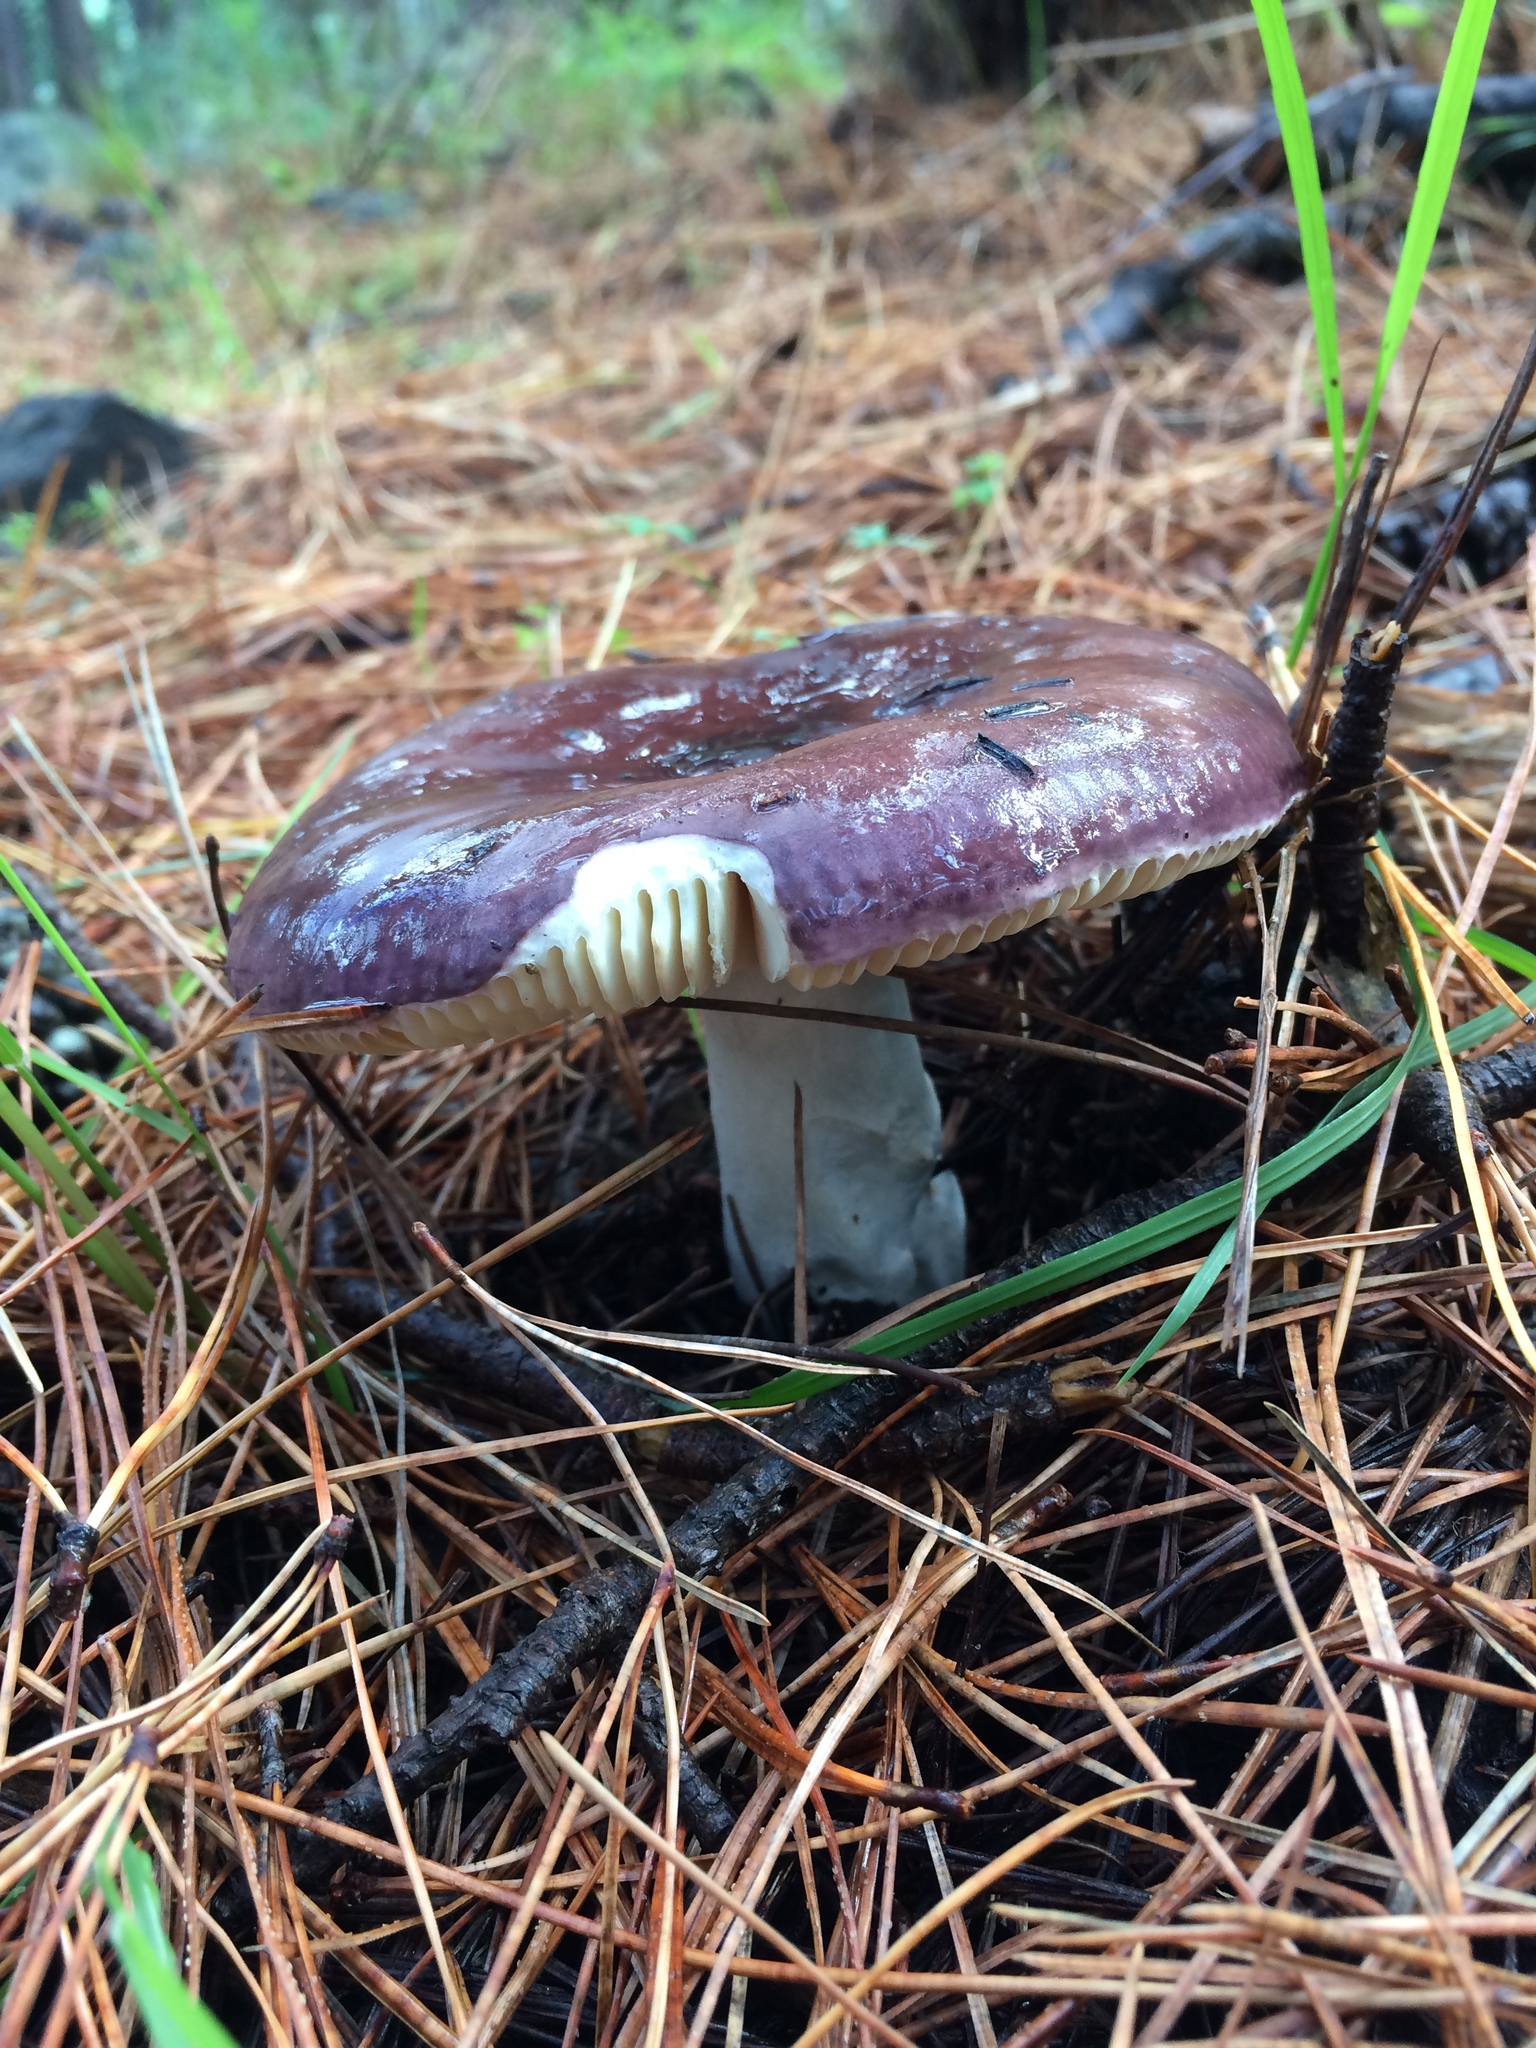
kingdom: Fungi
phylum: Basidiomycota
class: Agaricomycetes
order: Russulales
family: Russulaceae
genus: Russula
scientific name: Russula sardonia
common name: Primrose brittlegill
